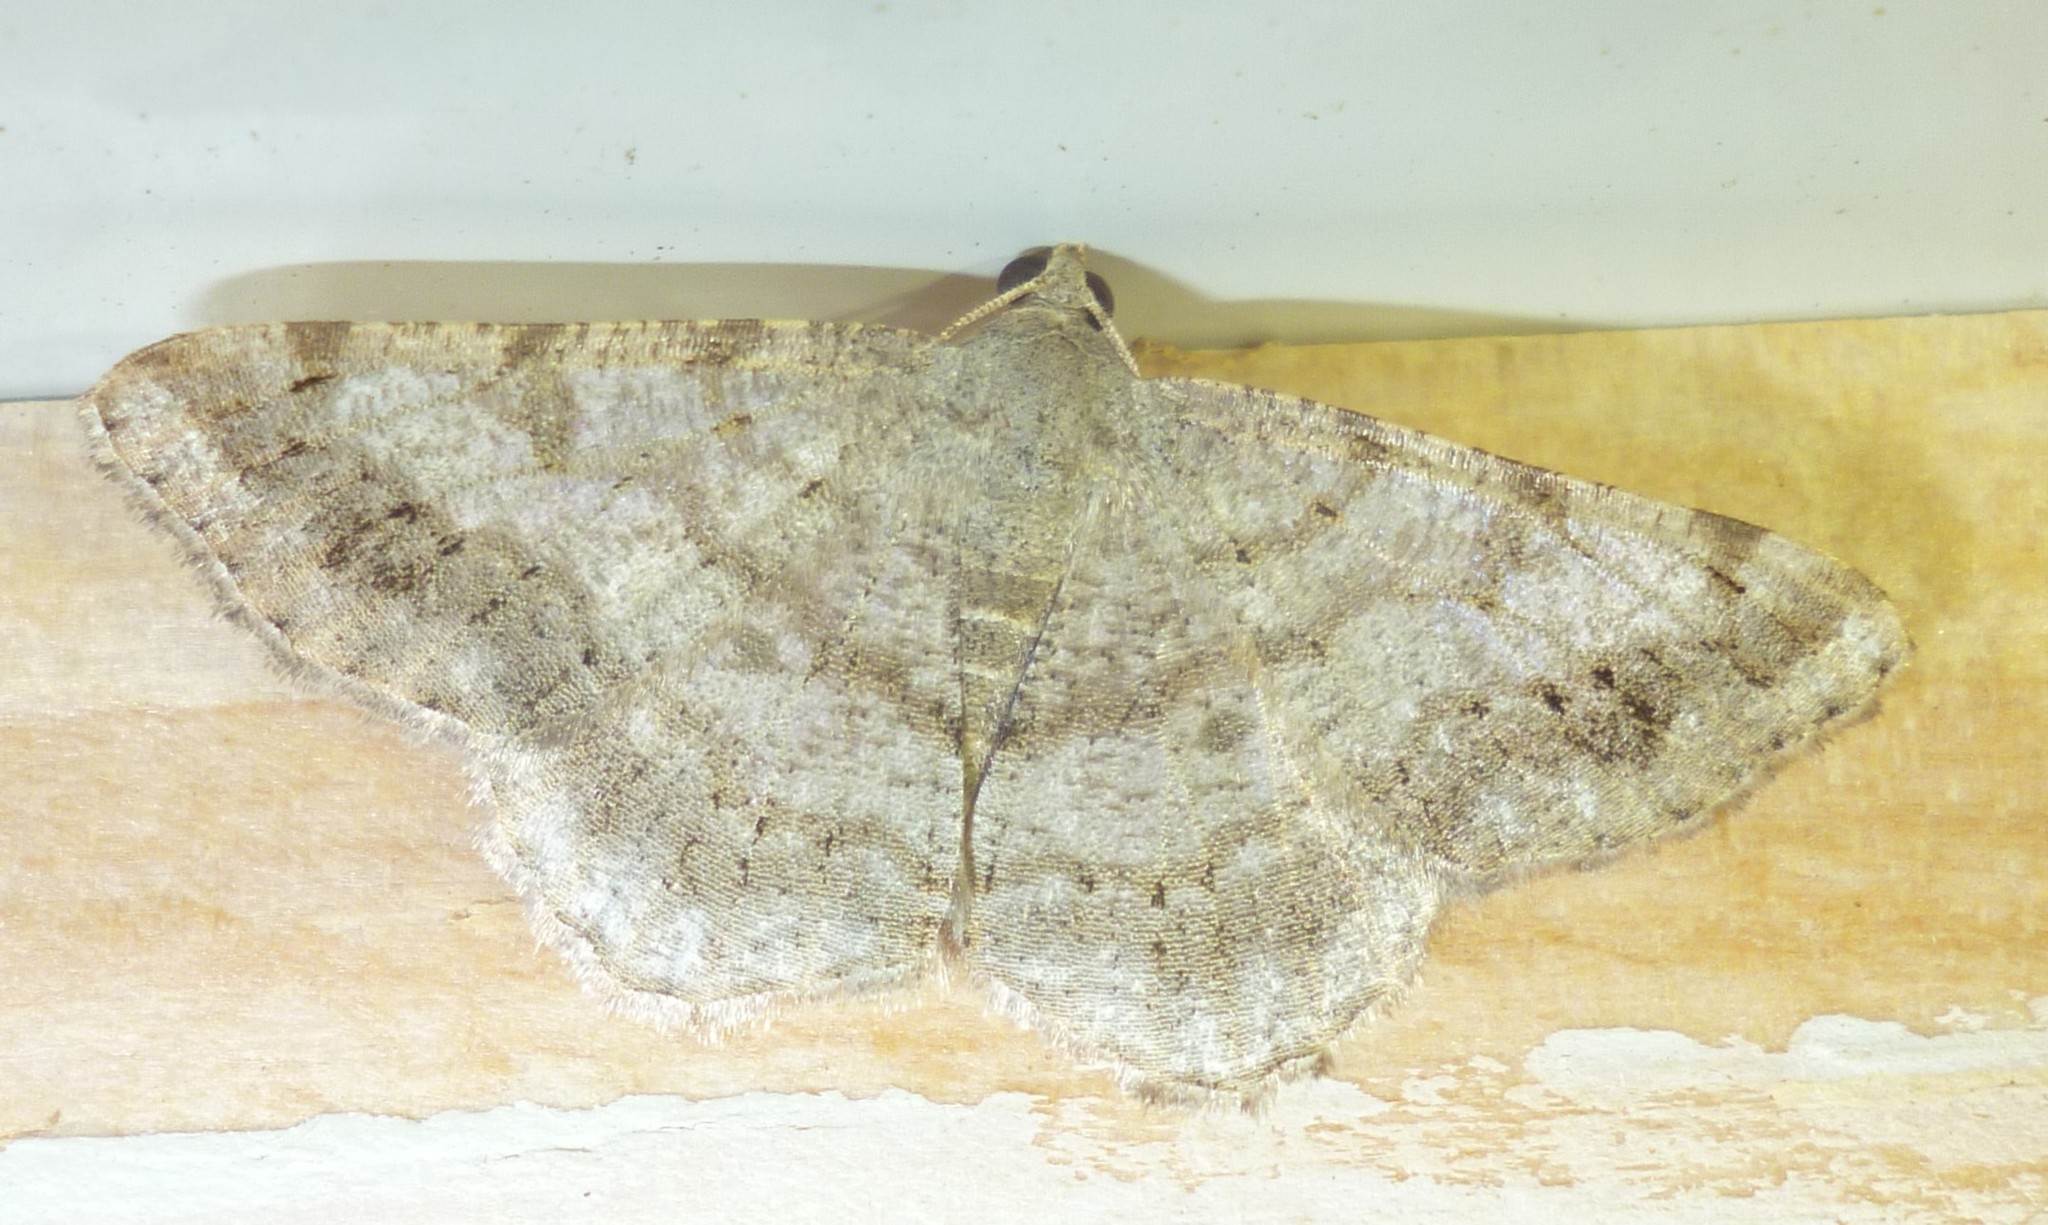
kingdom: Animalia
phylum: Arthropoda
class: Insecta
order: Lepidoptera
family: Geometridae
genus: Digrammia
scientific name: Digrammia ocellinata
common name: Faint-spotted angle
